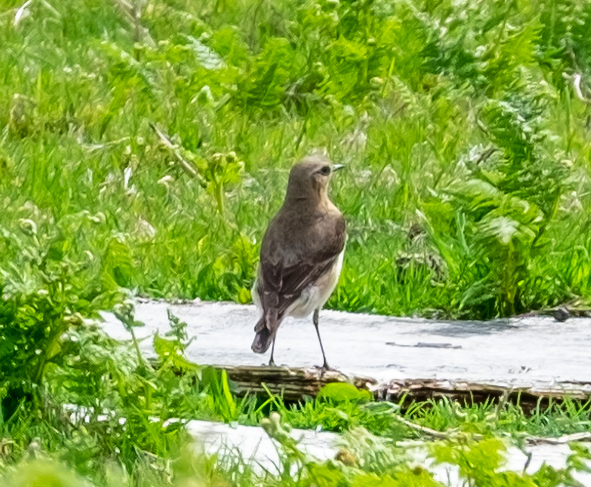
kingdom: Animalia
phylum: Chordata
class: Aves
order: Passeriformes
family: Muscicapidae
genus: Oenanthe
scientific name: Oenanthe oenanthe
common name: Northern wheatear
